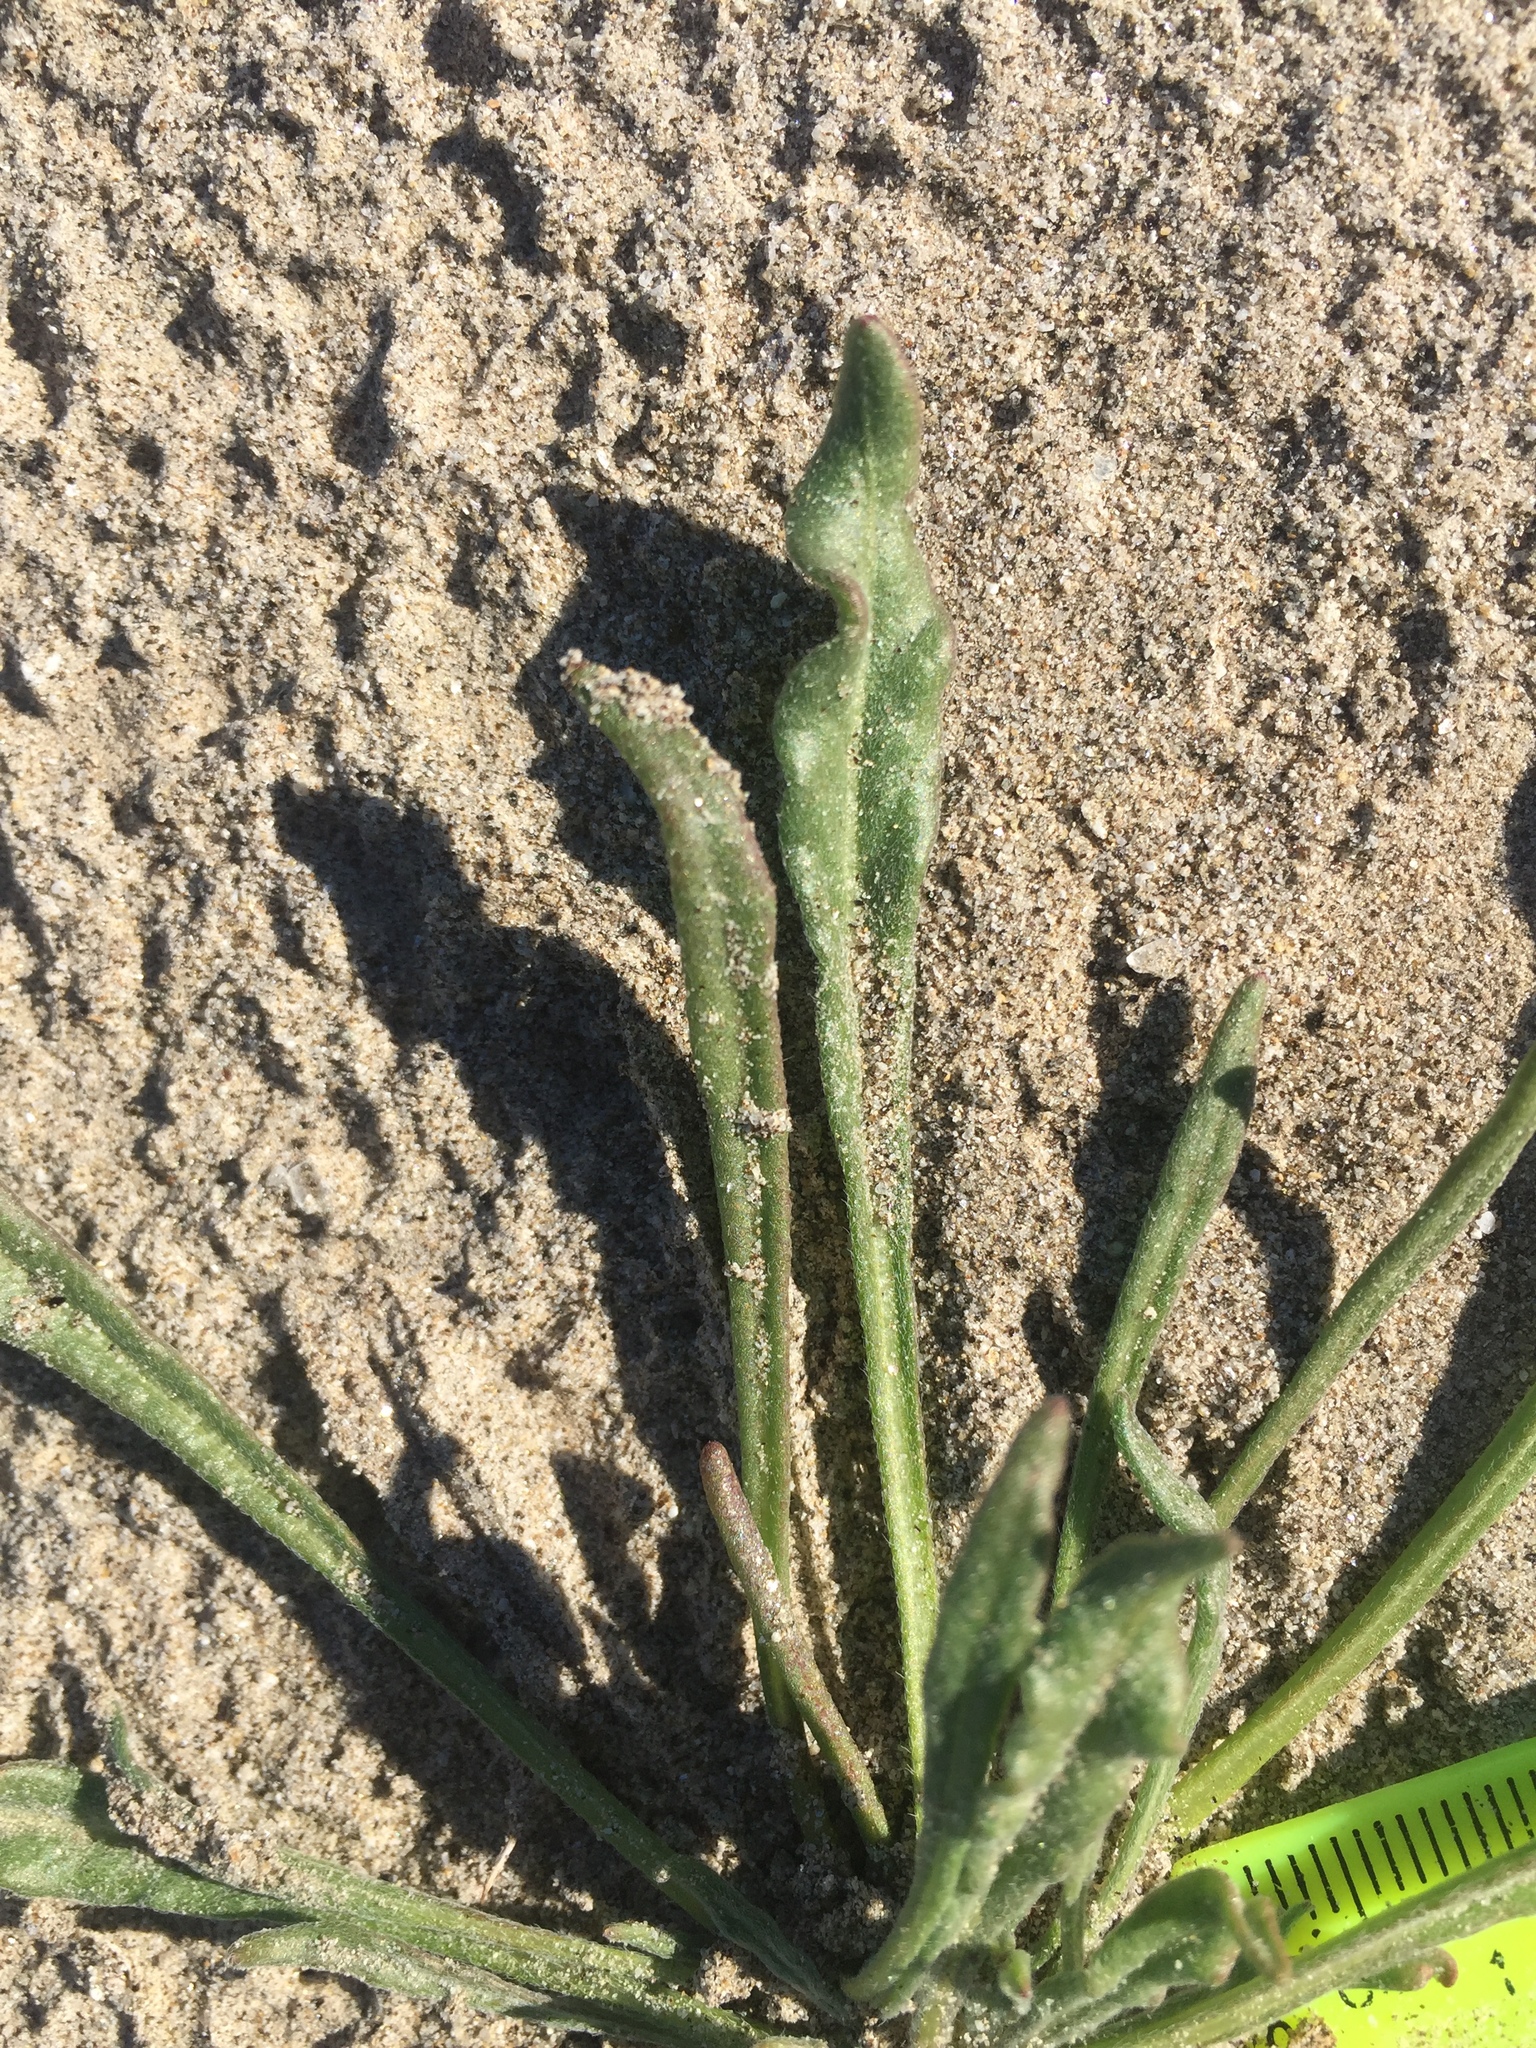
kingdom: Plantae
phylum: Tracheophyta
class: Magnoliopsida
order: Caryophyllales
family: Polygonaceae
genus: Chorizanthe
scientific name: Chorizanthe brevicornu
